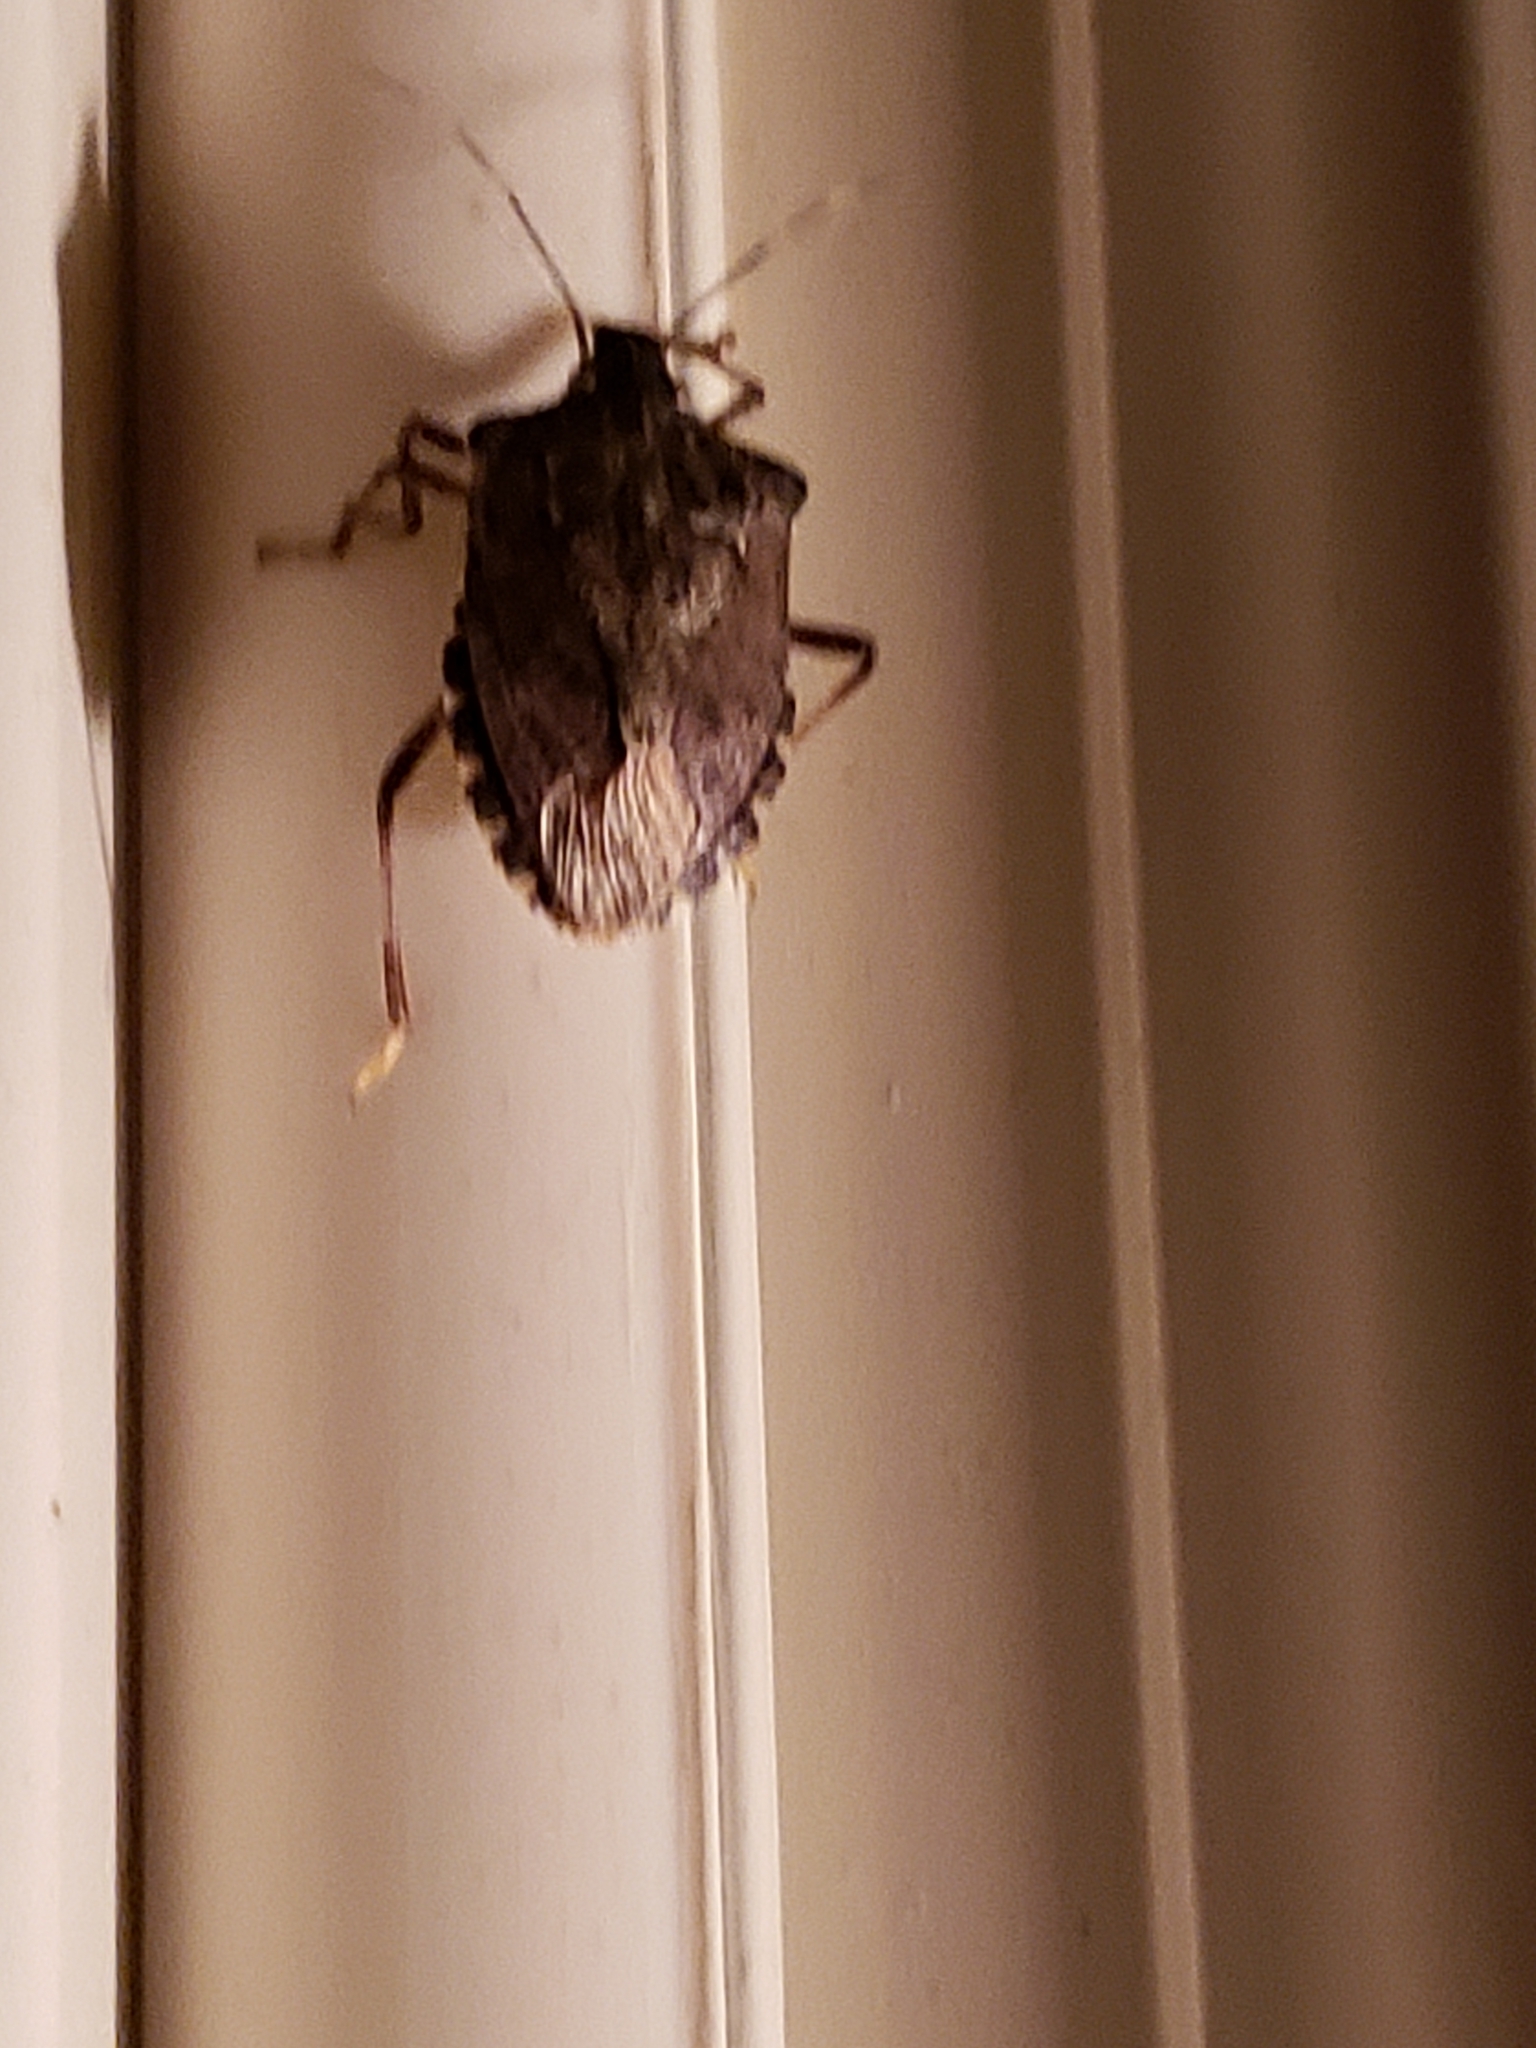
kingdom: Animalia
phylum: Arthropoda
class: Insecta
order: Hemiptera
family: Pentatomidae
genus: Halyomorpha
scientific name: Halyomorpha halys
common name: Brown marmorated stink bug
